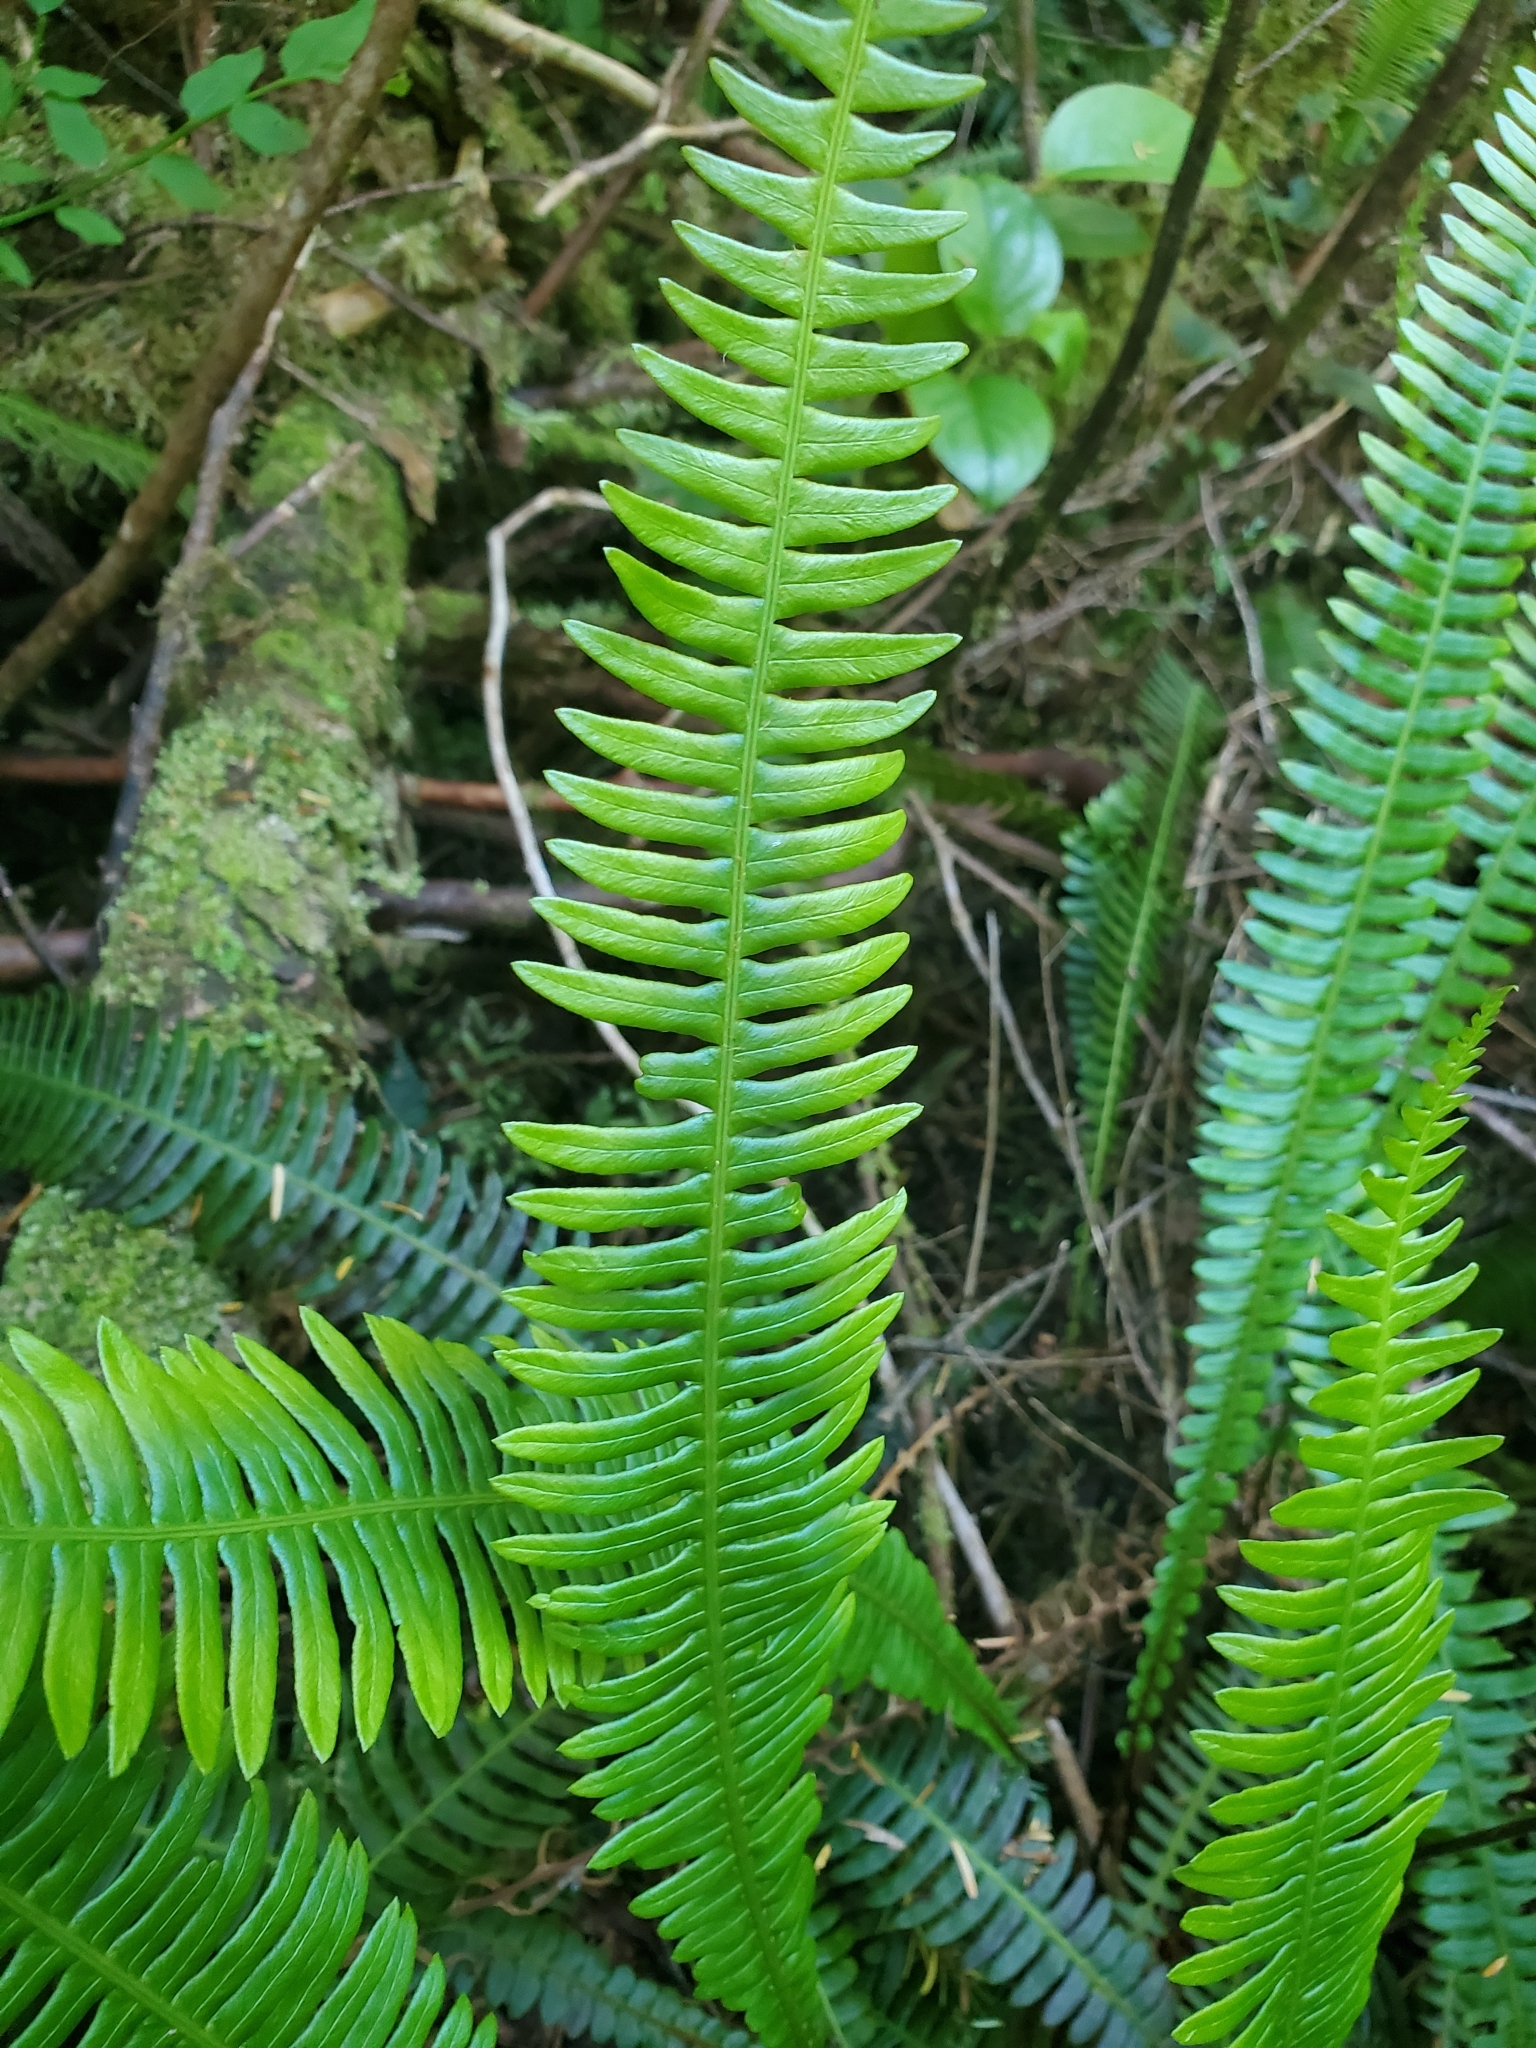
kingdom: Plantae
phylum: Tracheophyta
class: Polypodiopsida
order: Polypodiales
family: Blechnaceae
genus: Struthiopteris
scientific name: Struthiopteris spicant
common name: Deer fern
